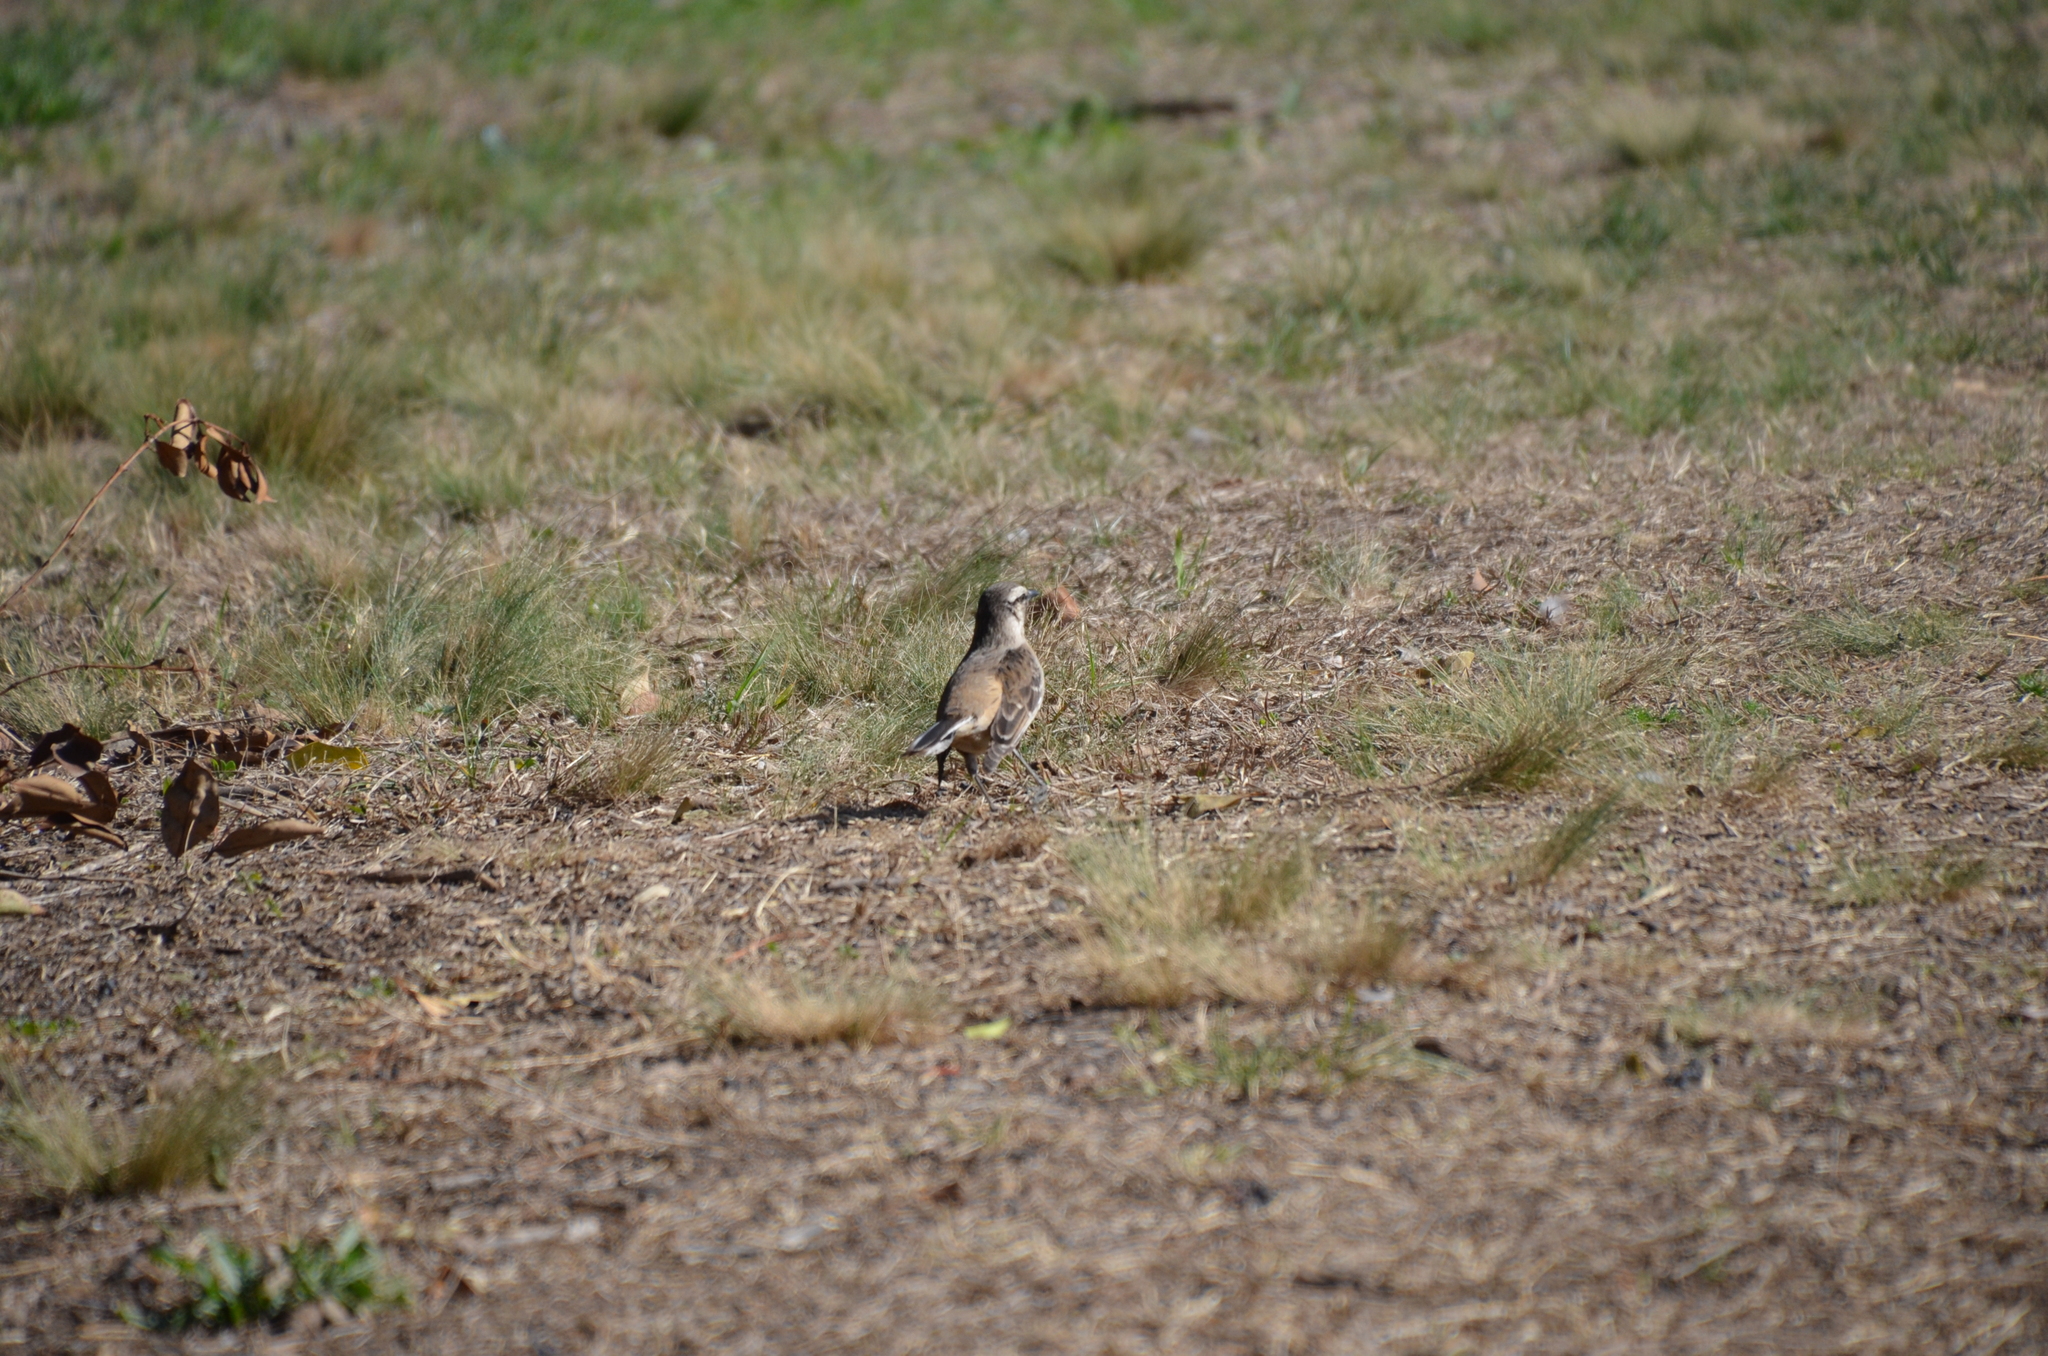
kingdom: Animalia
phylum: Chordata
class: Aves
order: Passeriformes
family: Mimidae
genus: Mimus
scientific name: Mimus saturninus
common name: Chalk-browed mockingbird
